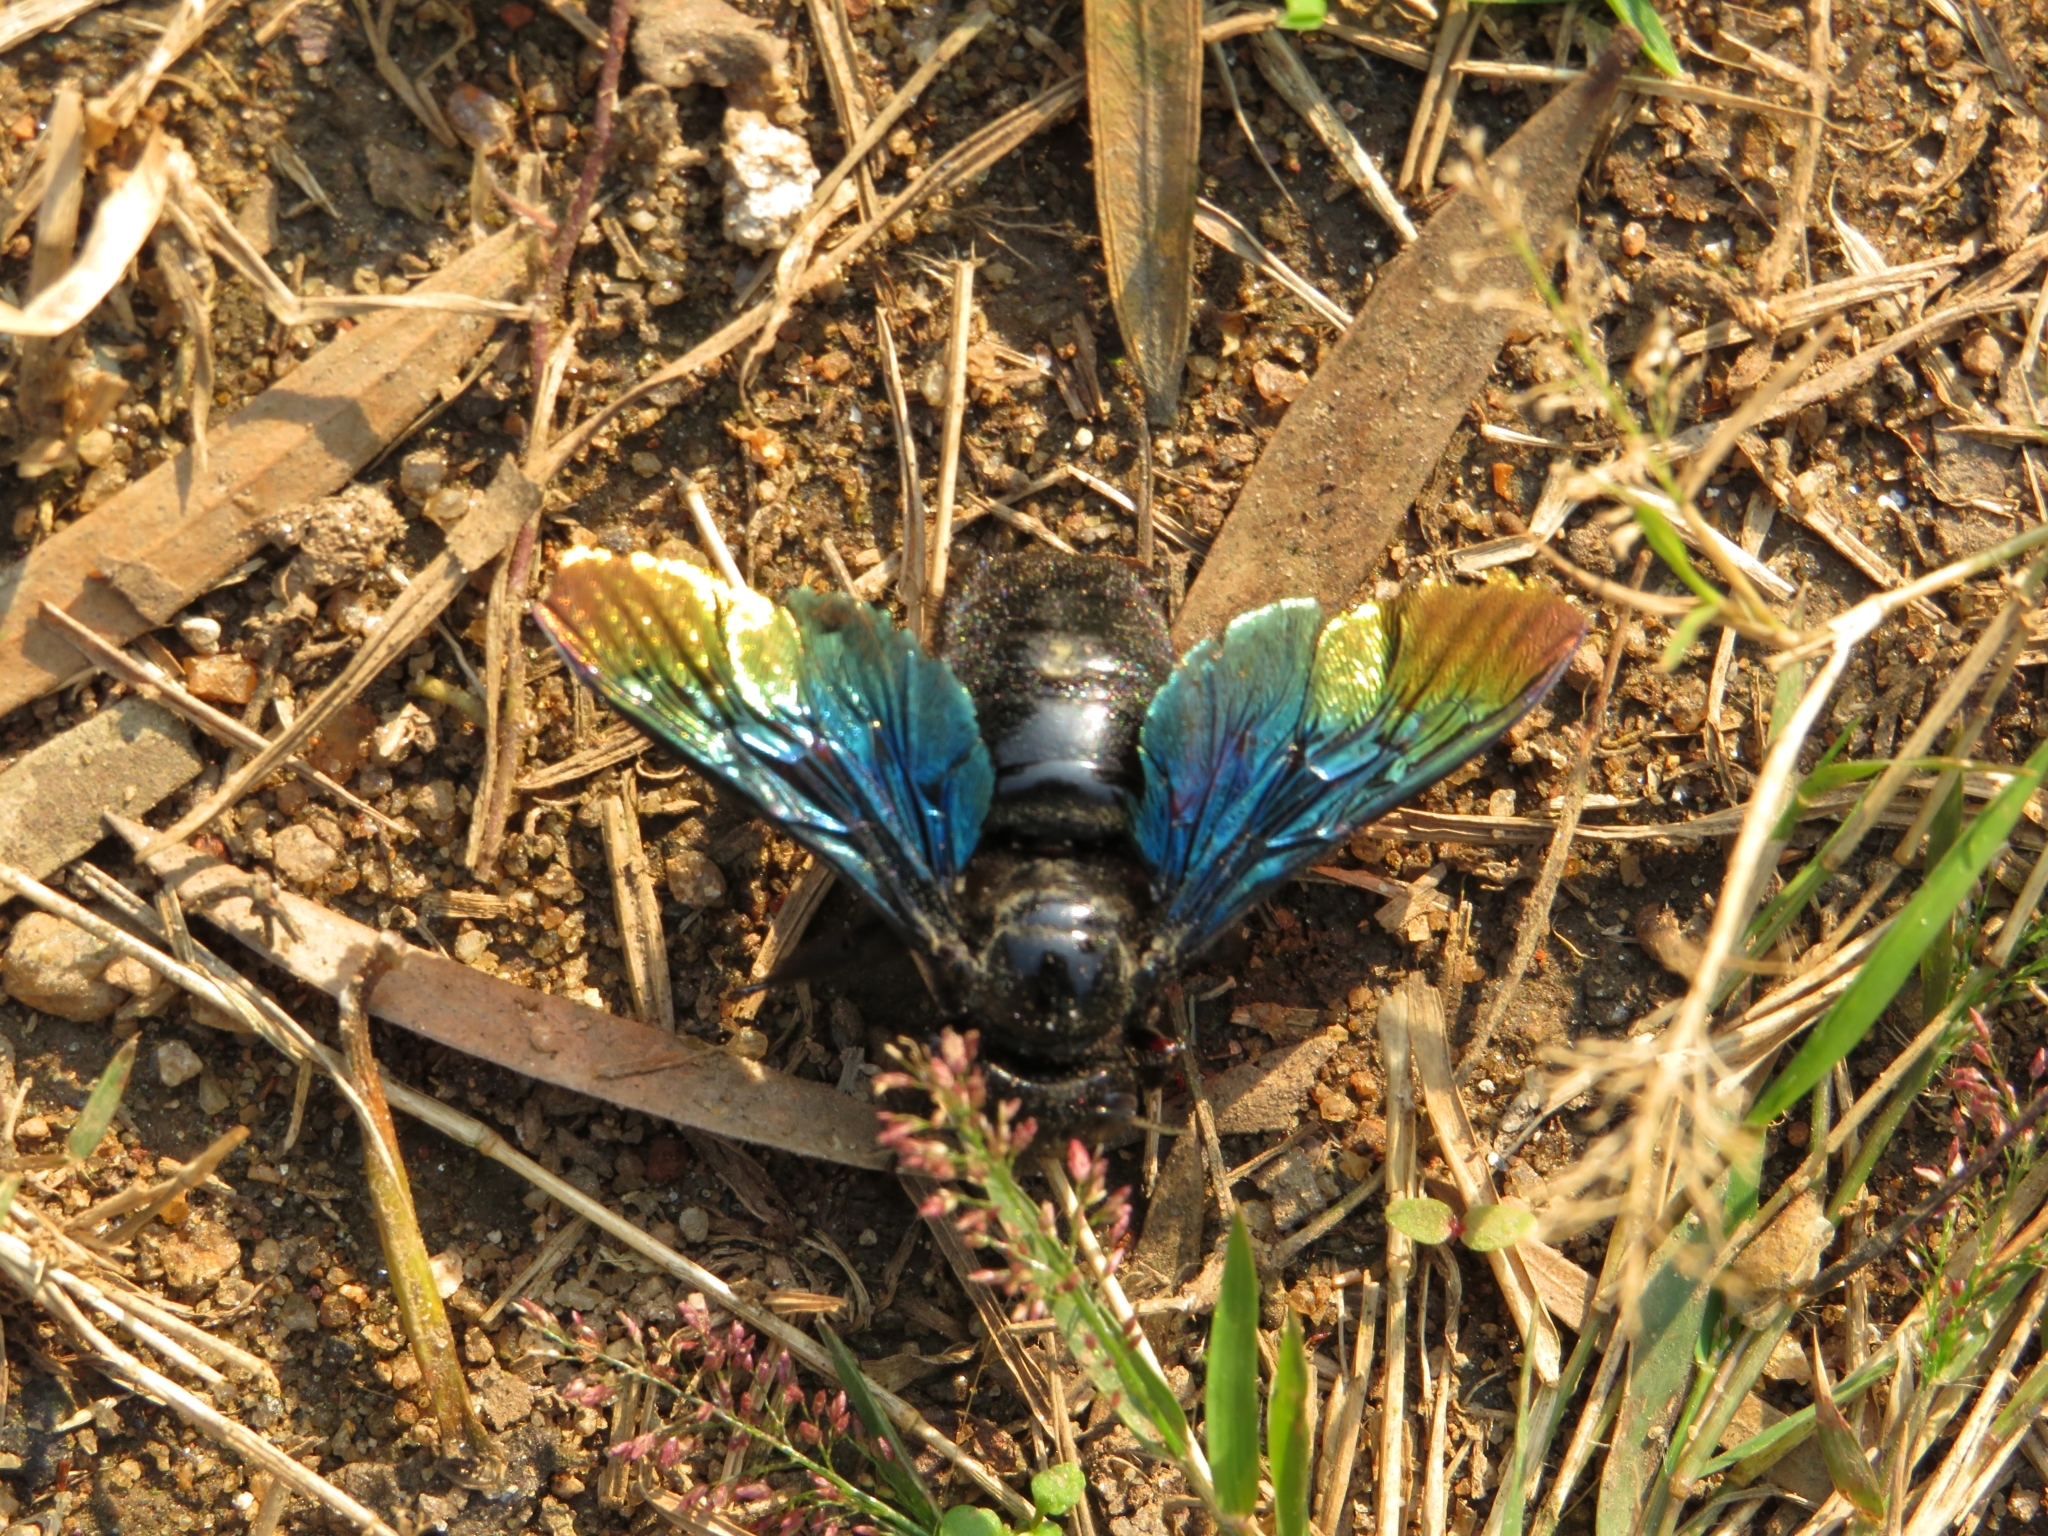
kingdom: Animalia
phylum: Arthropoda
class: Insecta
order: Hymenoptera
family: Apidae
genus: Xylocopa
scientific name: Xylocopa auripennis
